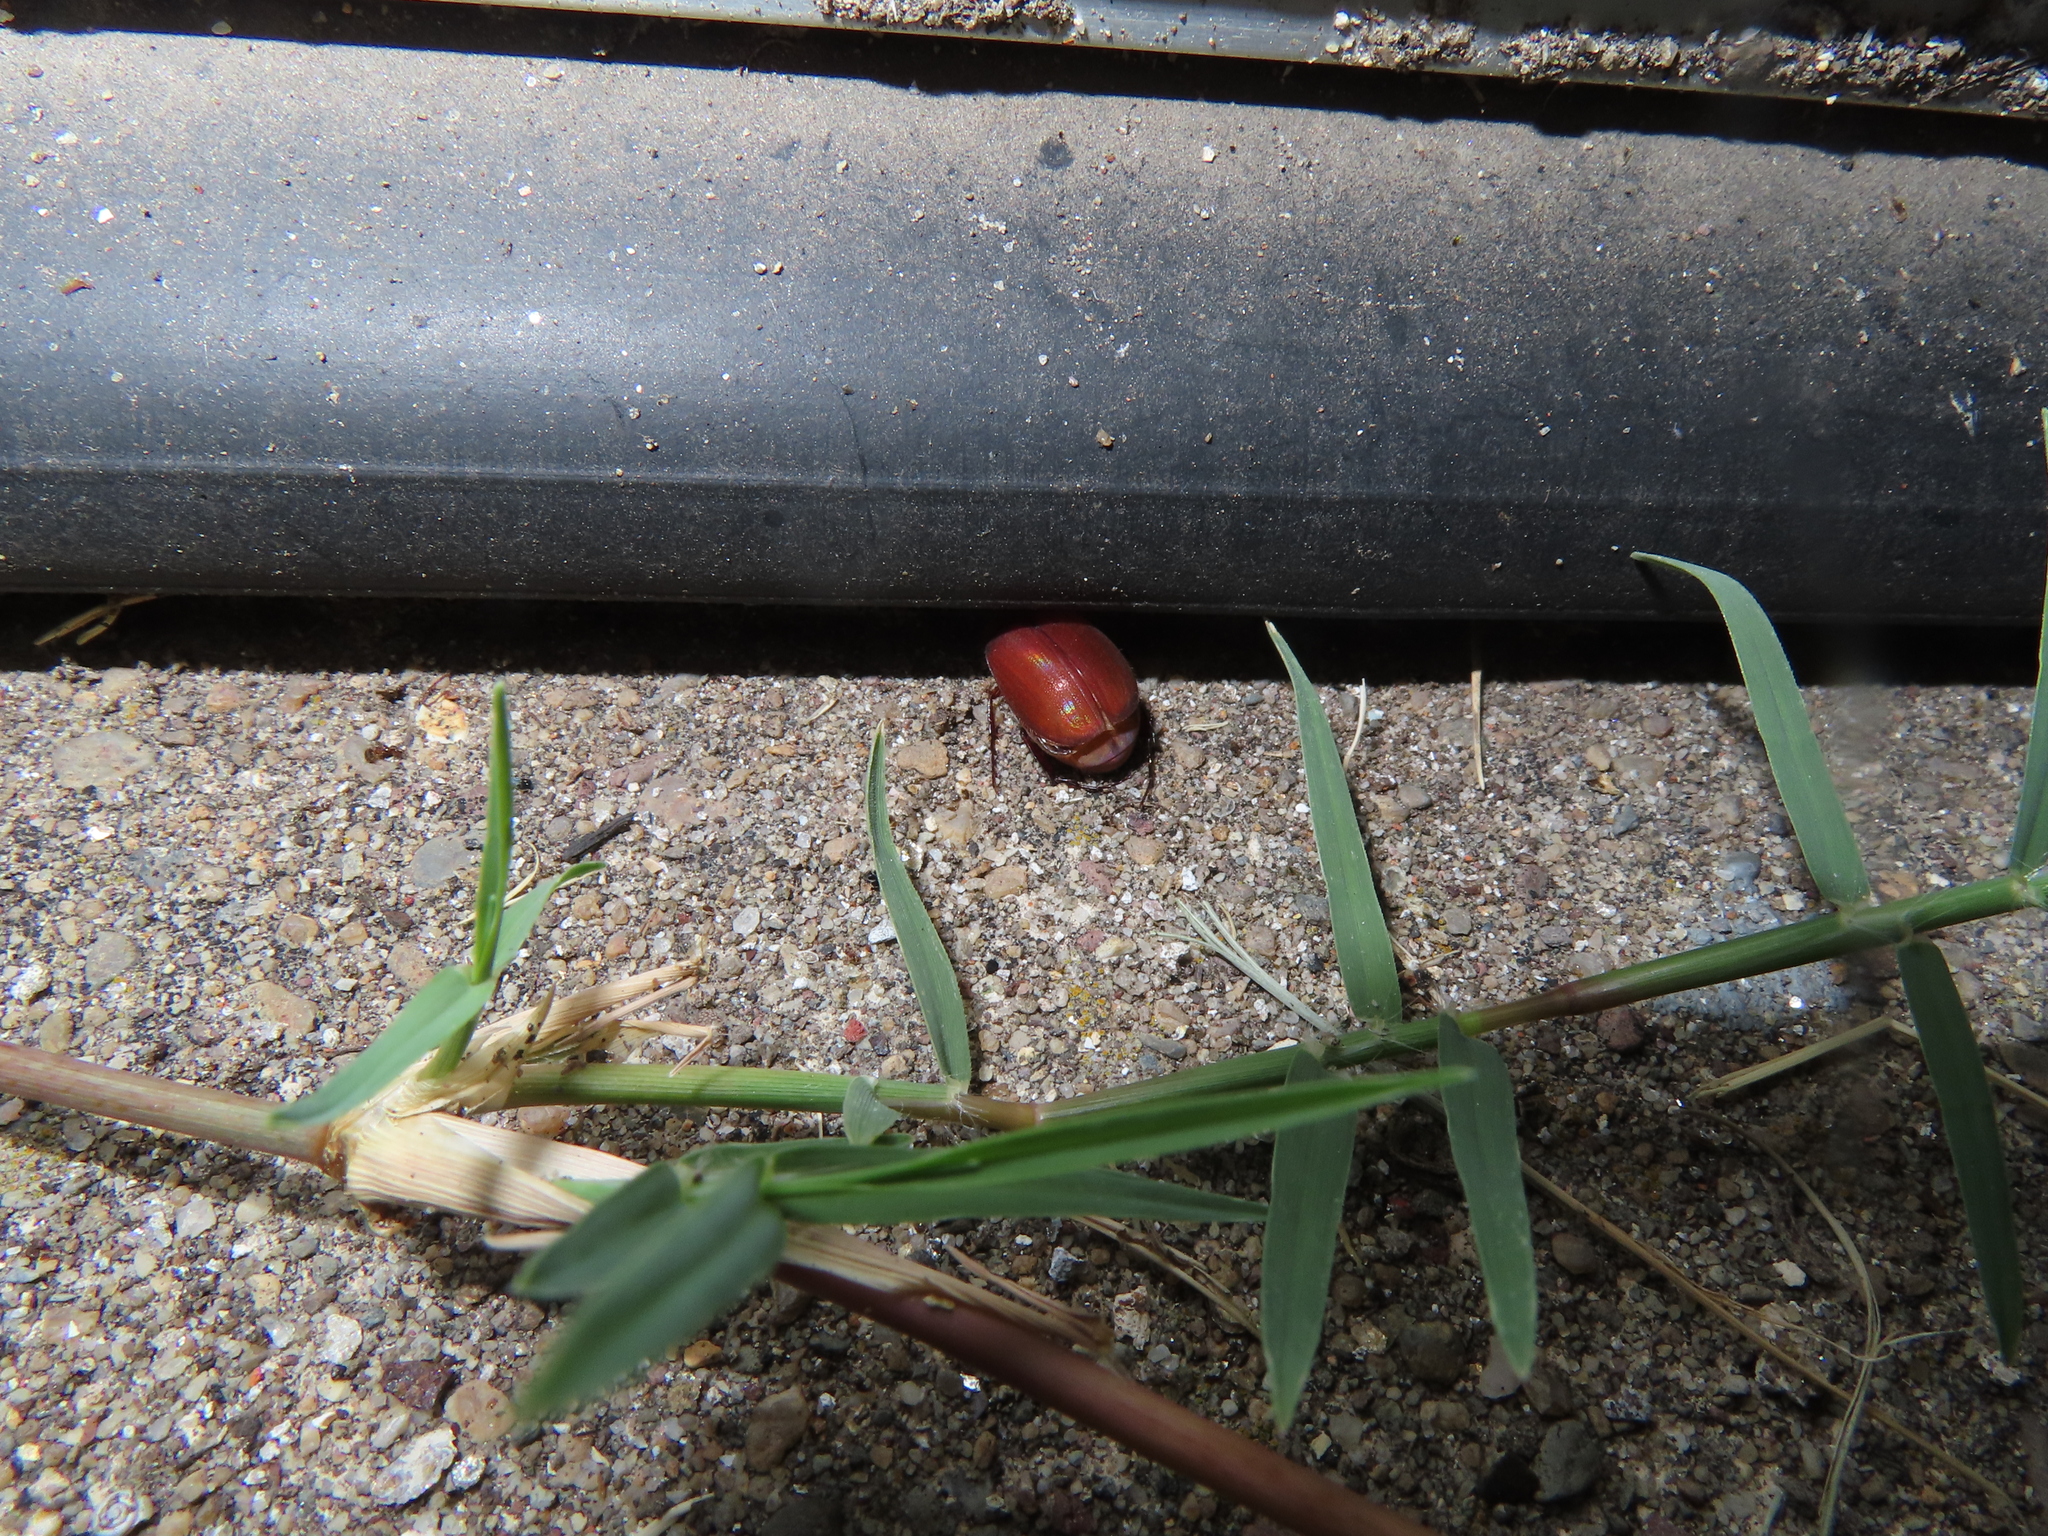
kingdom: Animalia
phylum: Arthropoda
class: Insecta
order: Coleoptera
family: Scarabaeidae
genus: Maladera
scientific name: Maladera formosae
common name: Asiatic garden beetle
